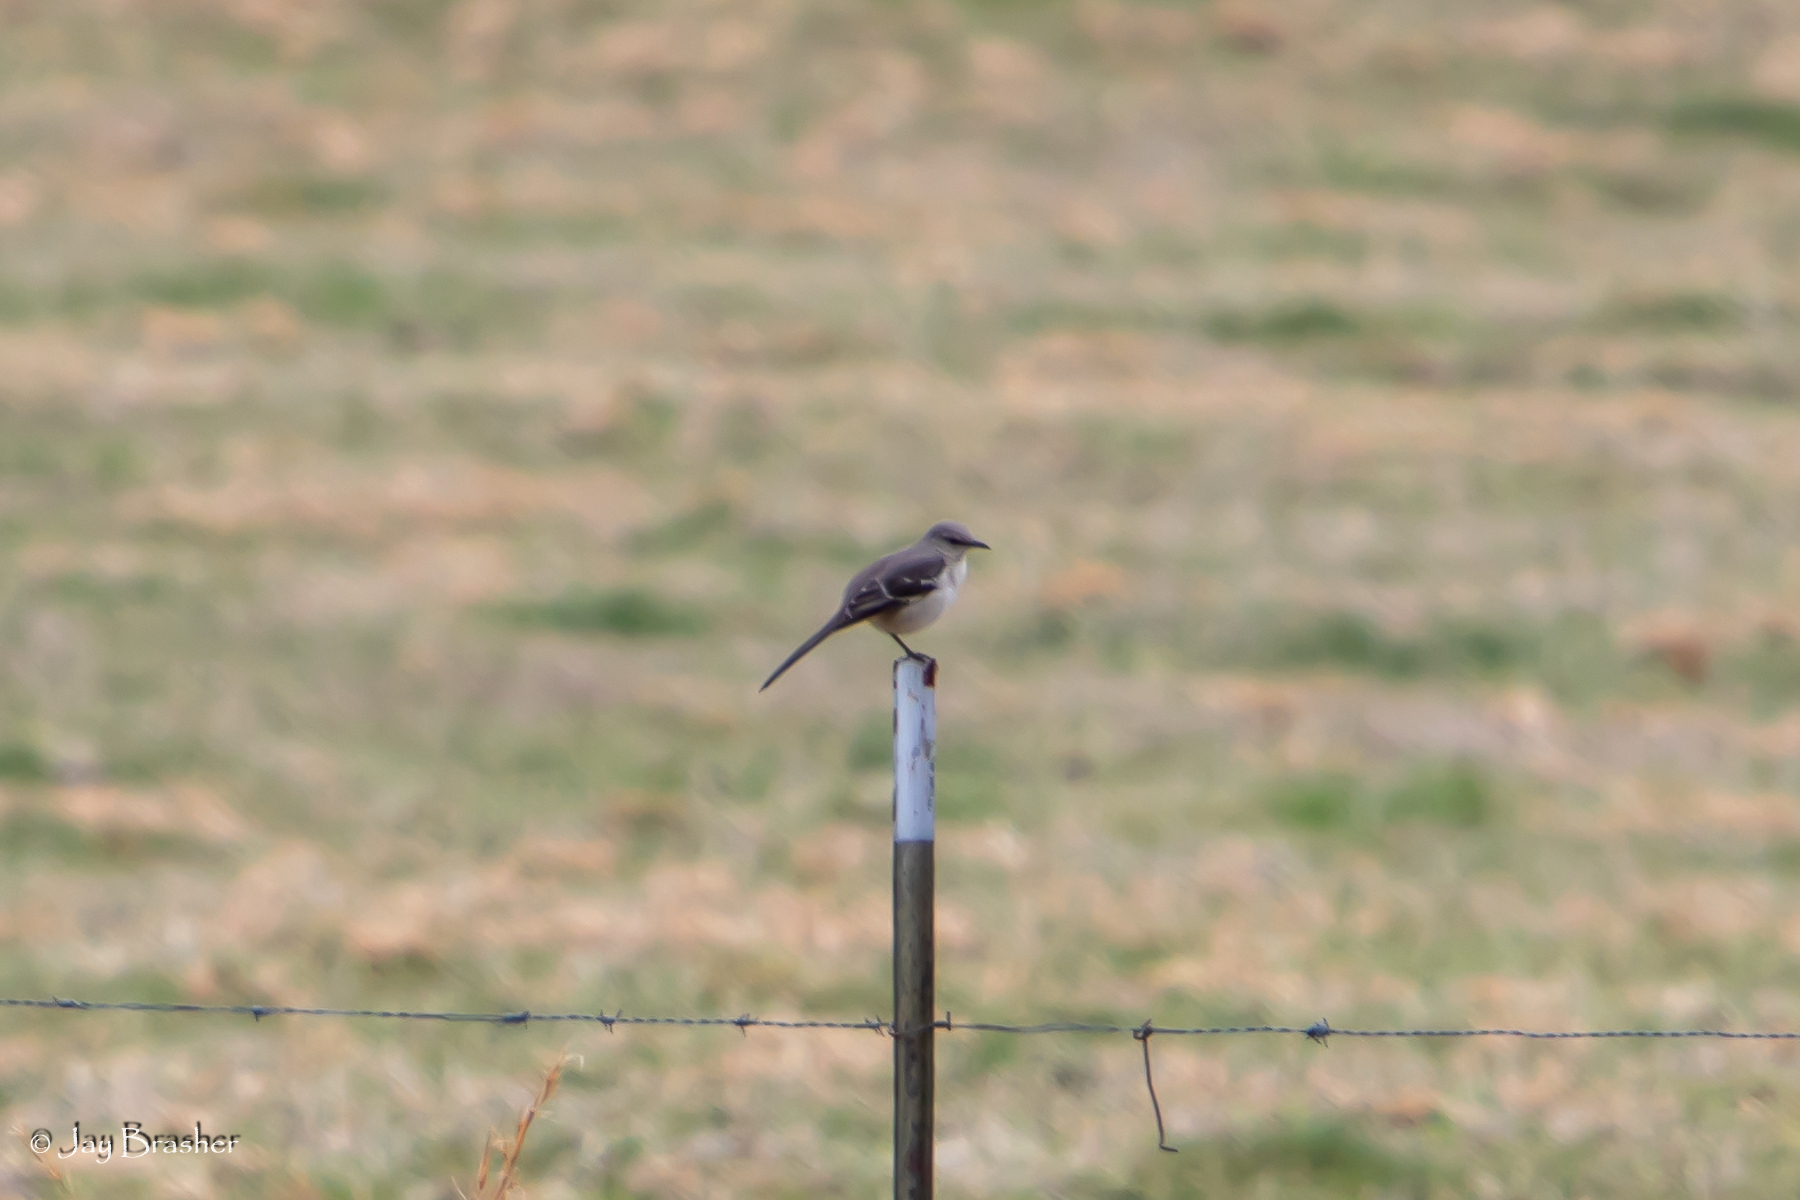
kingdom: Animalia
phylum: Chordata
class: Aves
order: Passeriformes
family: Mimidae
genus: Mimus
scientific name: Mimus polyglottos
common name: Northern mockingbird
